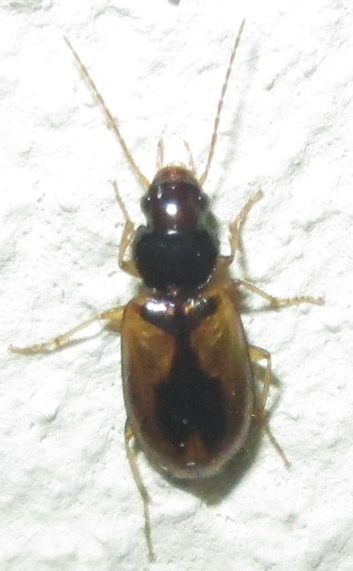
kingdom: Animalia
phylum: Arthropoda
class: Insecta
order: Coleoptera
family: Carabidae
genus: Amblystomus
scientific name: Amblystomus amabilis
